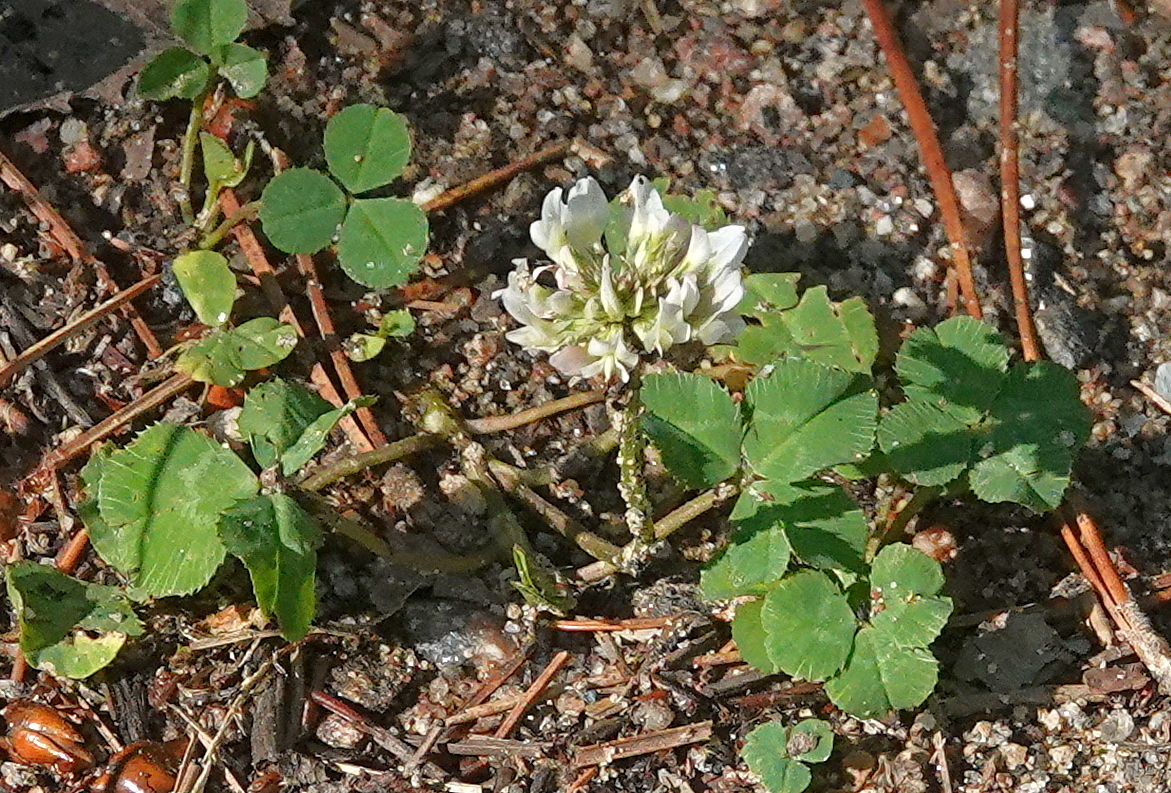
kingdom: Plantae
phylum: Tracheophyta
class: Magnoliopsida
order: Fabales
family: Fabaceae
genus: Trifolium
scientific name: Trifolium repens
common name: White clover
